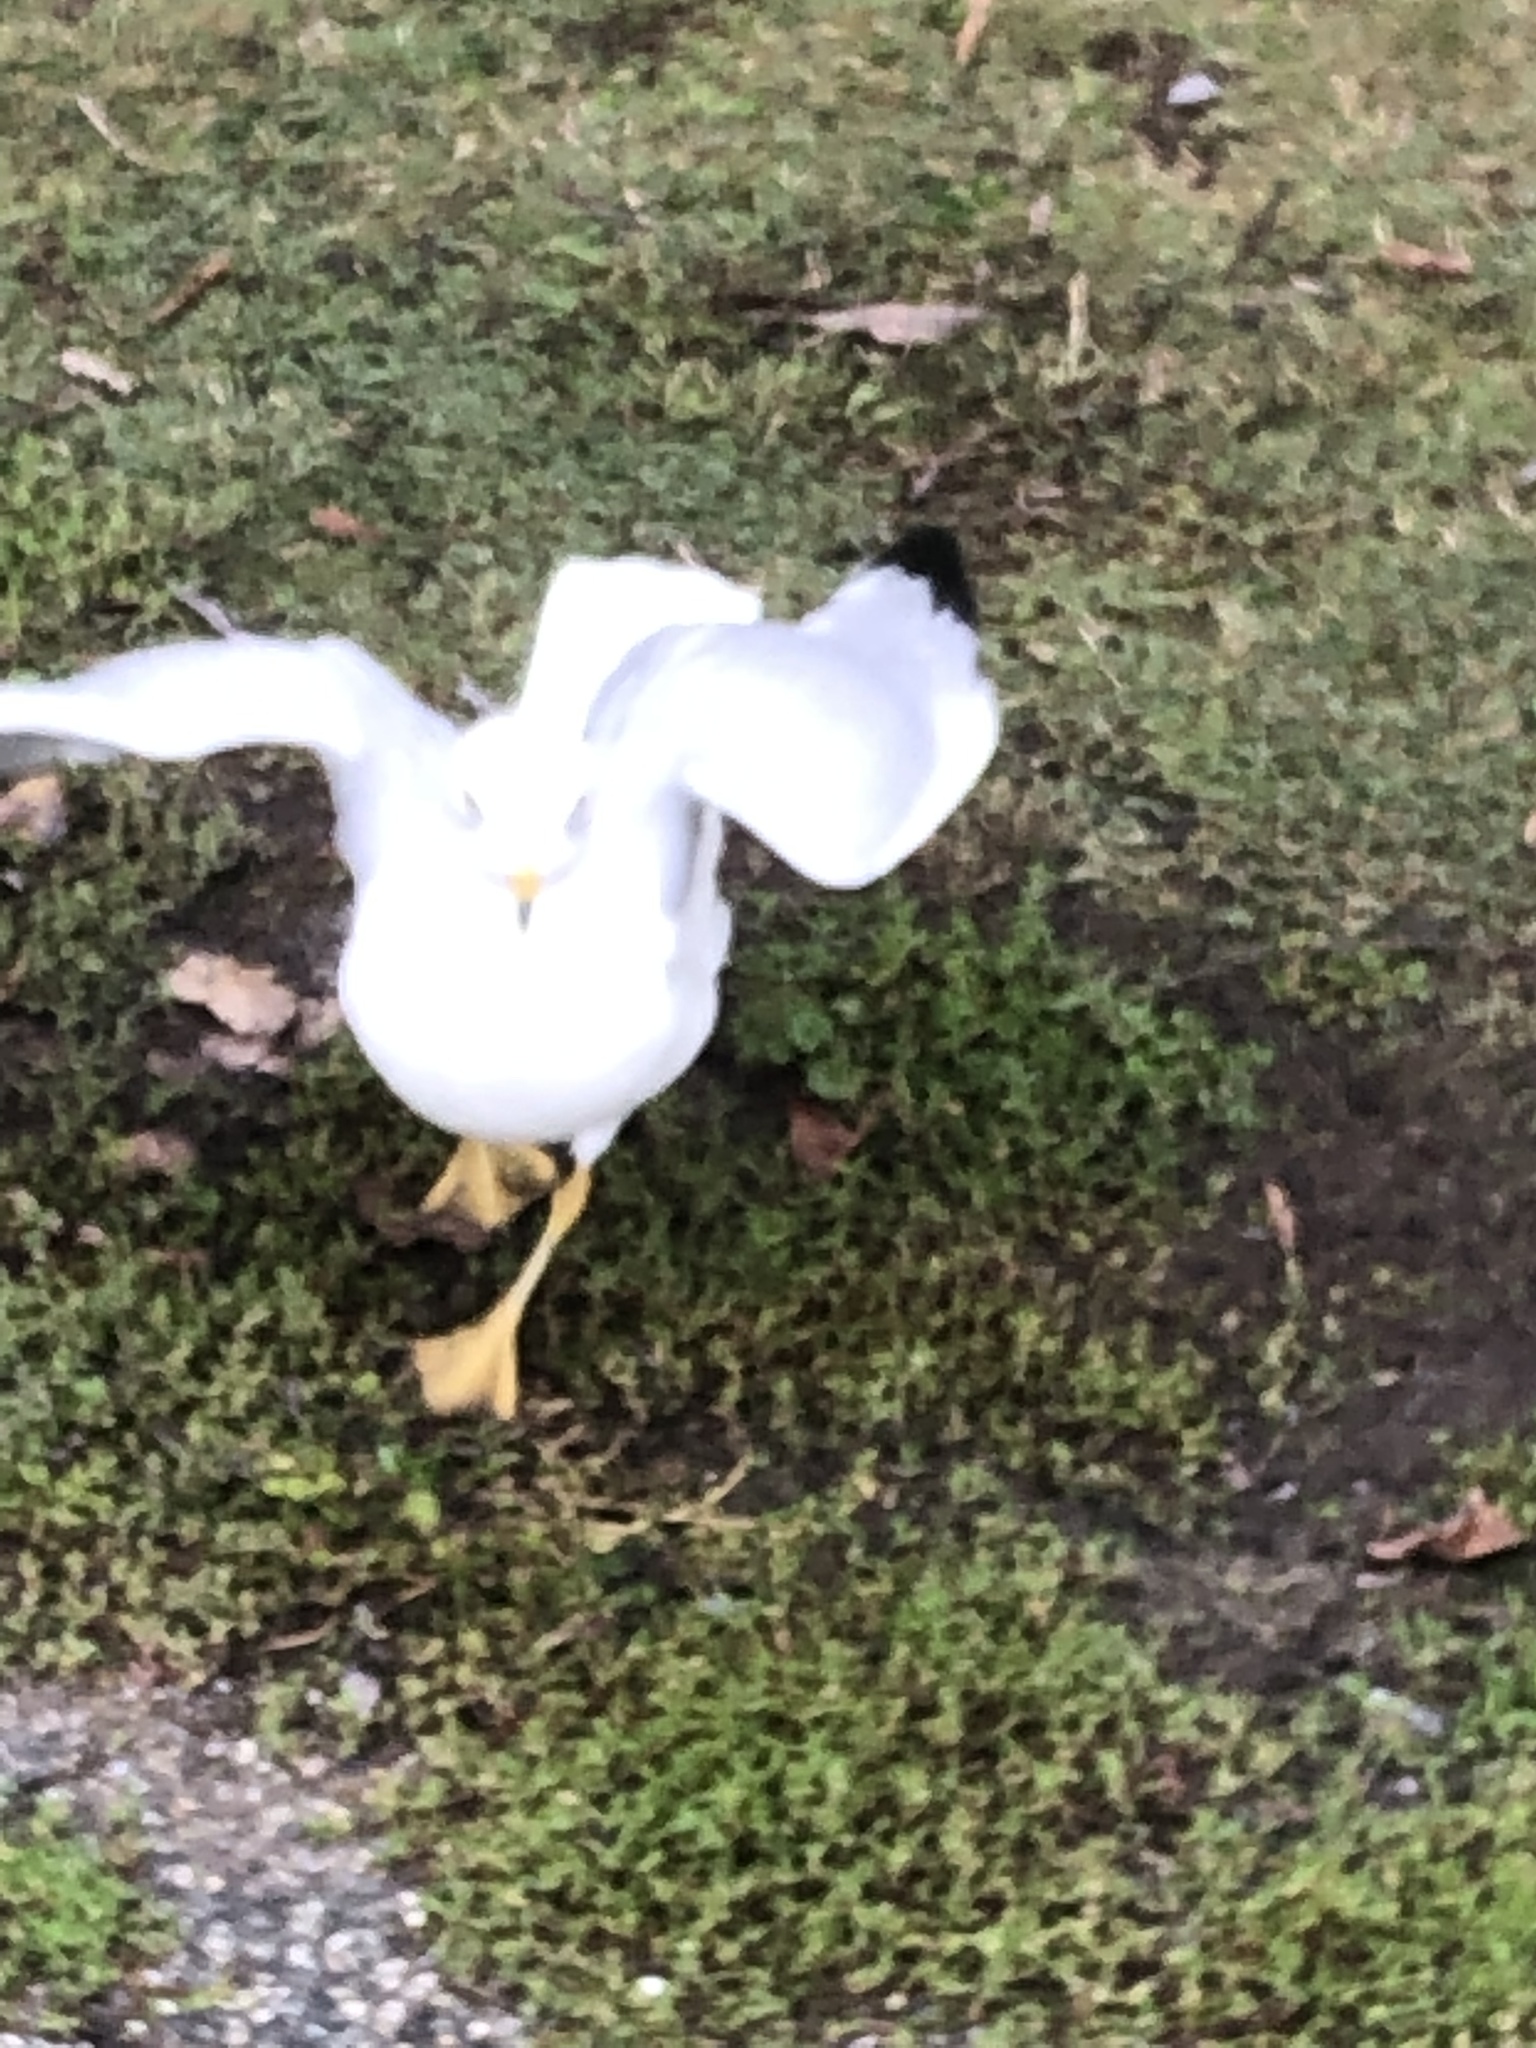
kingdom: Animalia
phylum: Chordata
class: Aves
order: Charadriiformes
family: Laridae
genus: Larus
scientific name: Larus delawarensis
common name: Ring-billed gull
